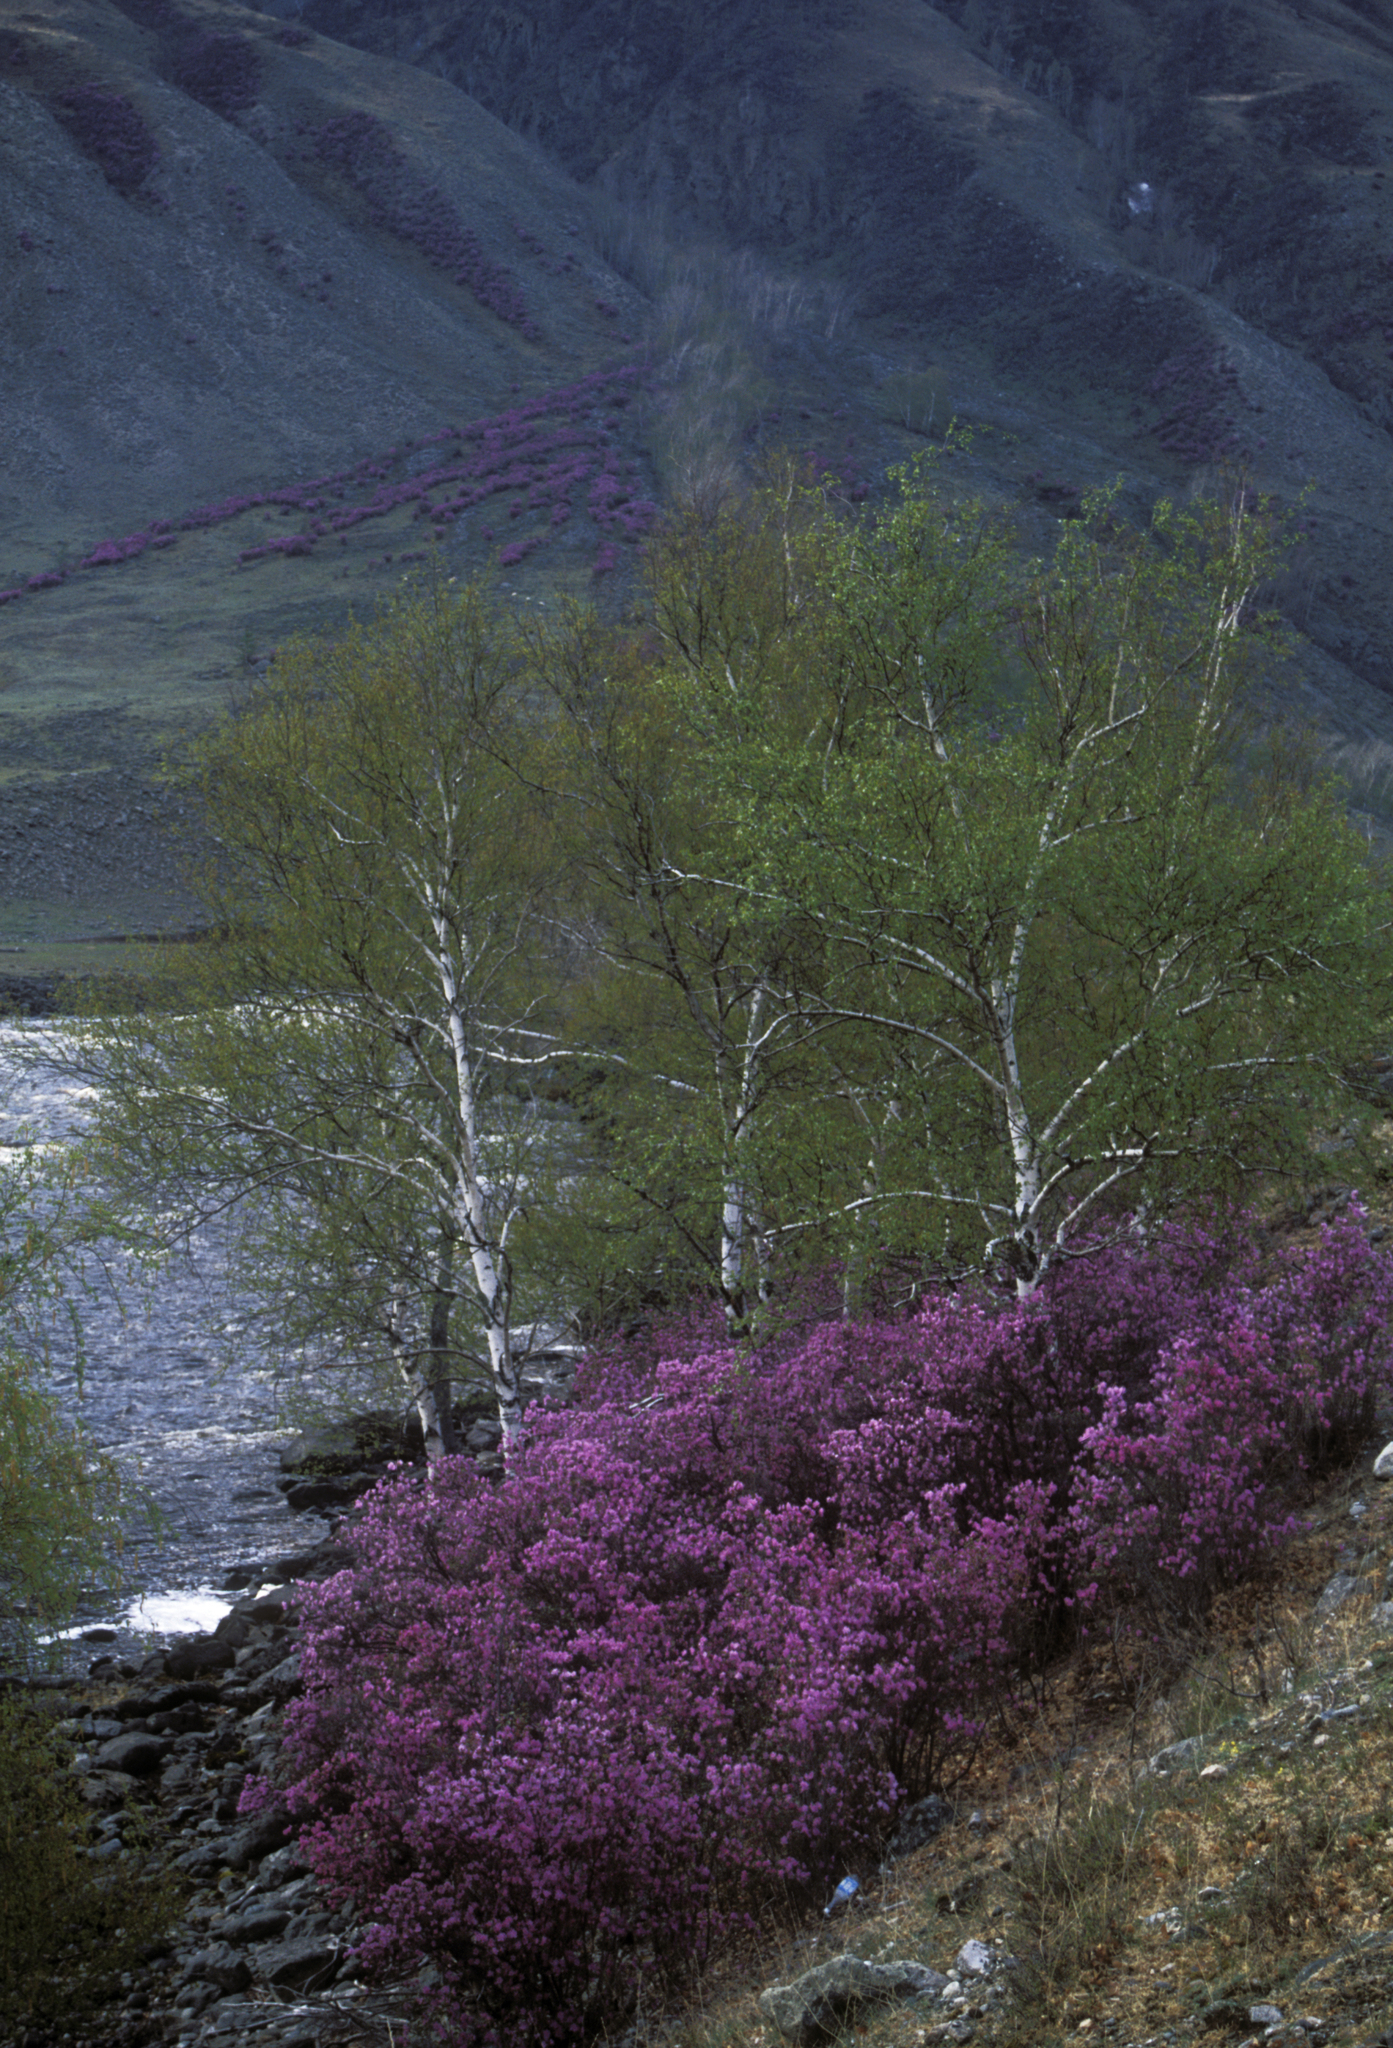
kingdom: Plantae
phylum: Tracheophyta
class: Magnoliopsida
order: Ericales
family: Ericaceae
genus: Rhododendron
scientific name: Rhododendron dauricum
